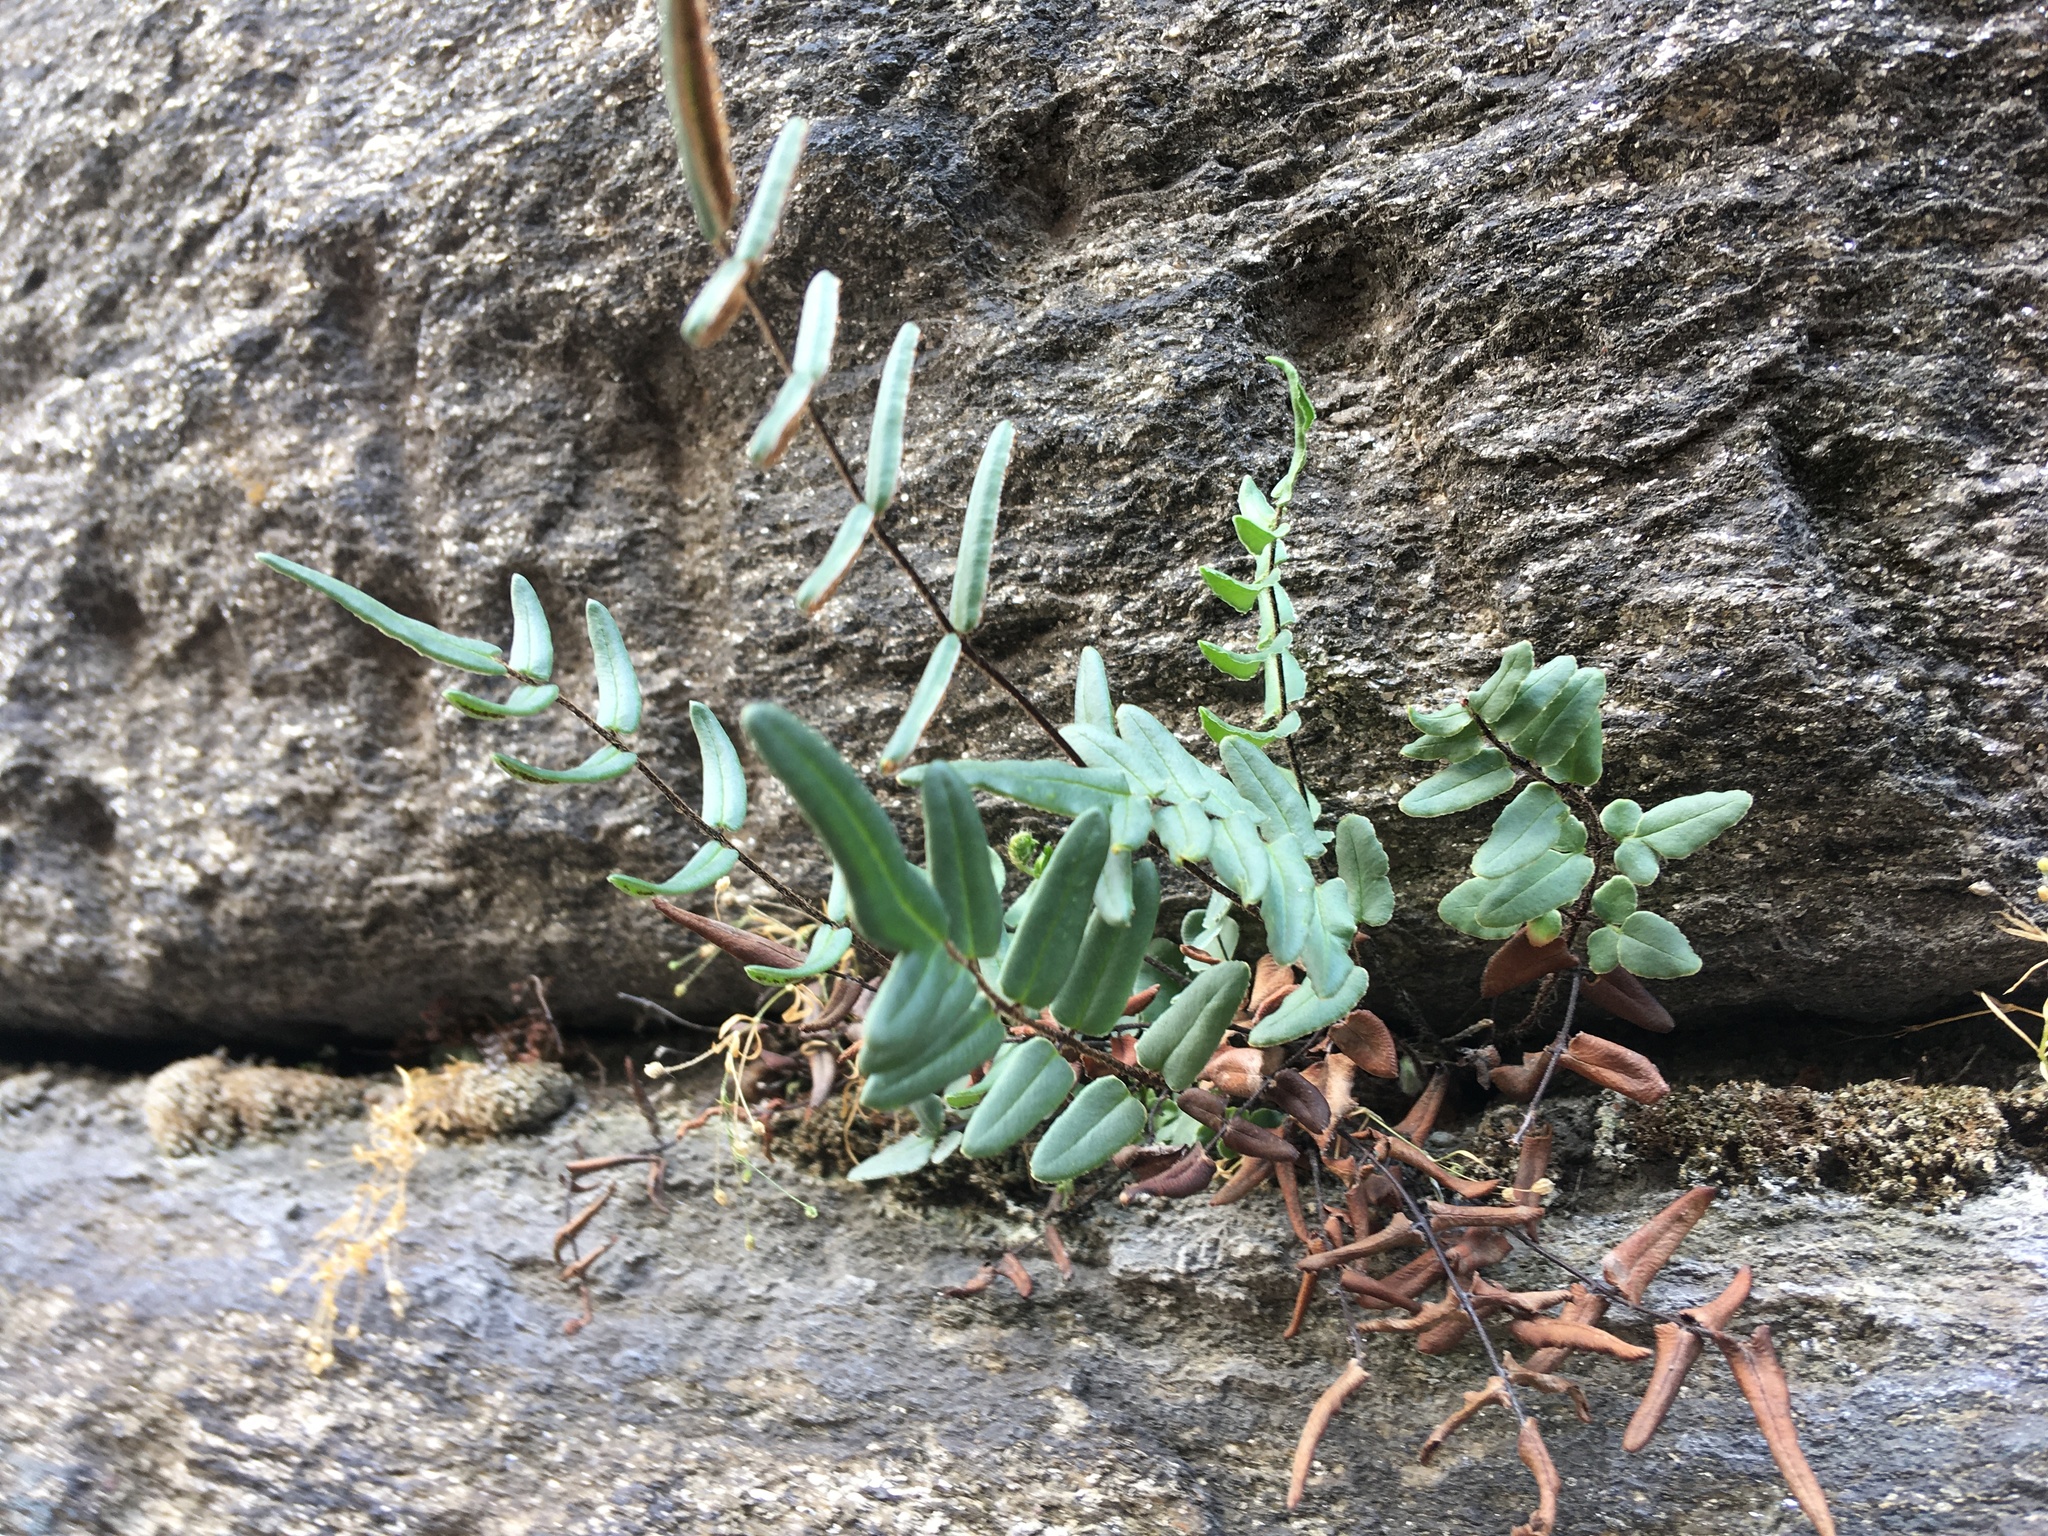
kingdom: Plantae
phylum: Tracheophyta
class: Polypodiopsida
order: Polypodiales
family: Pteridaceae
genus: Pellaea
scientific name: Pellaea atropurpurea
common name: Hairy cliffbrake
